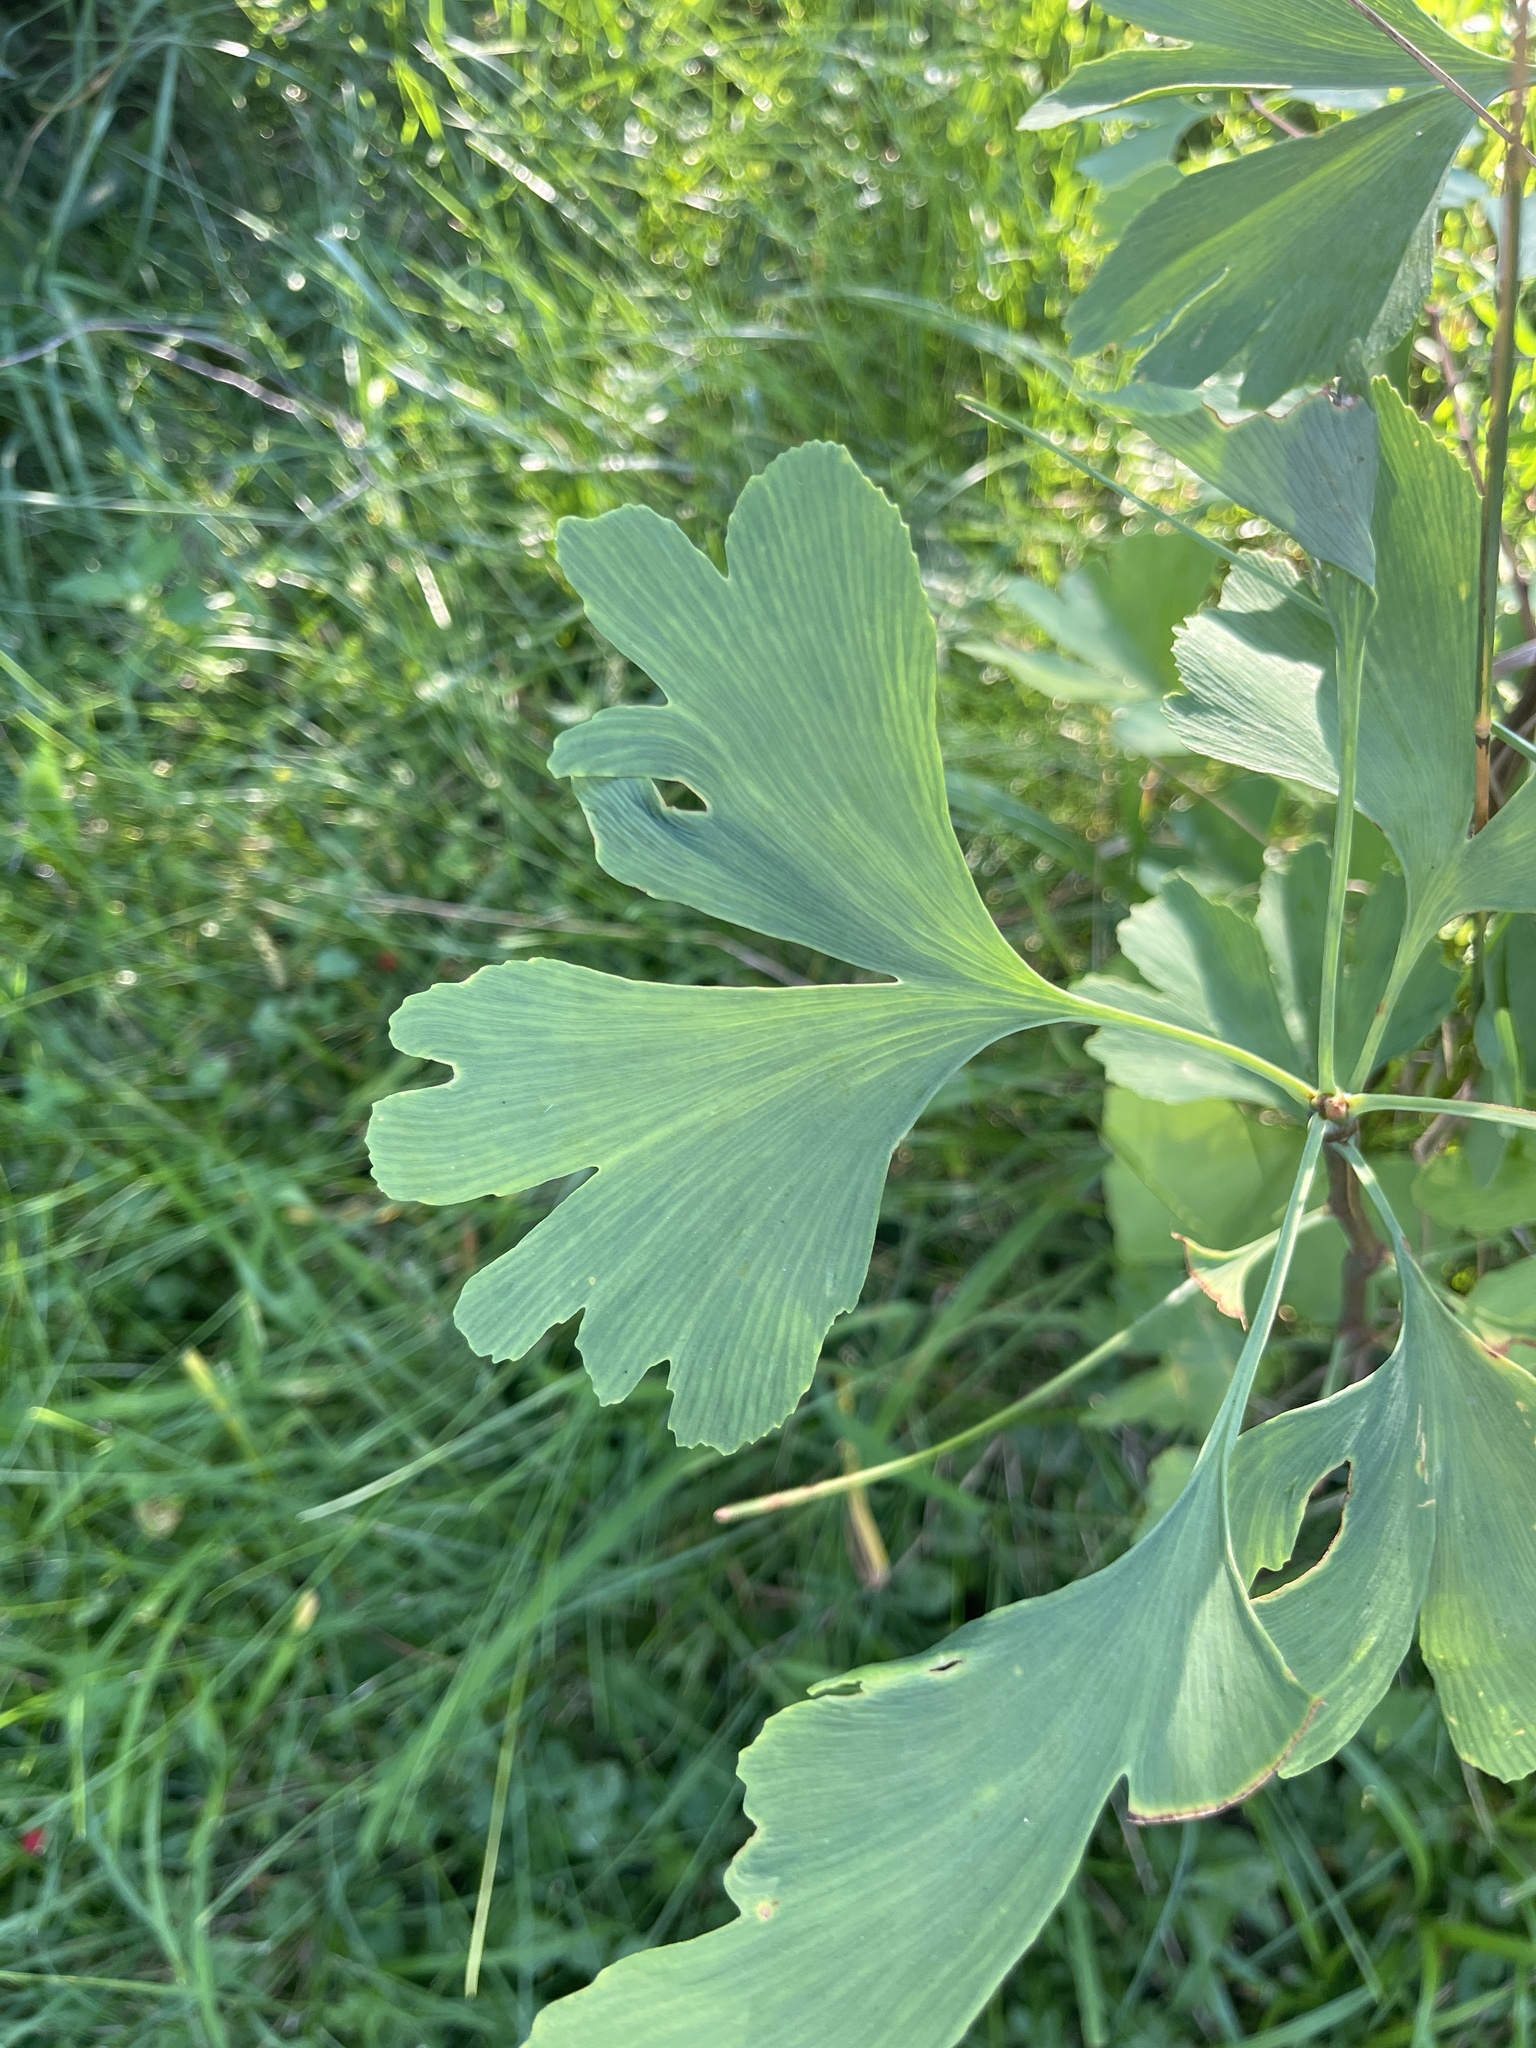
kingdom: Plantae
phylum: Tracheophyta
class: Ginkgoopsida
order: Ginkgoales
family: Ginkgoaceae
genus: Ginkgo
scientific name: Ginkgo biloba
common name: Ginkgo
